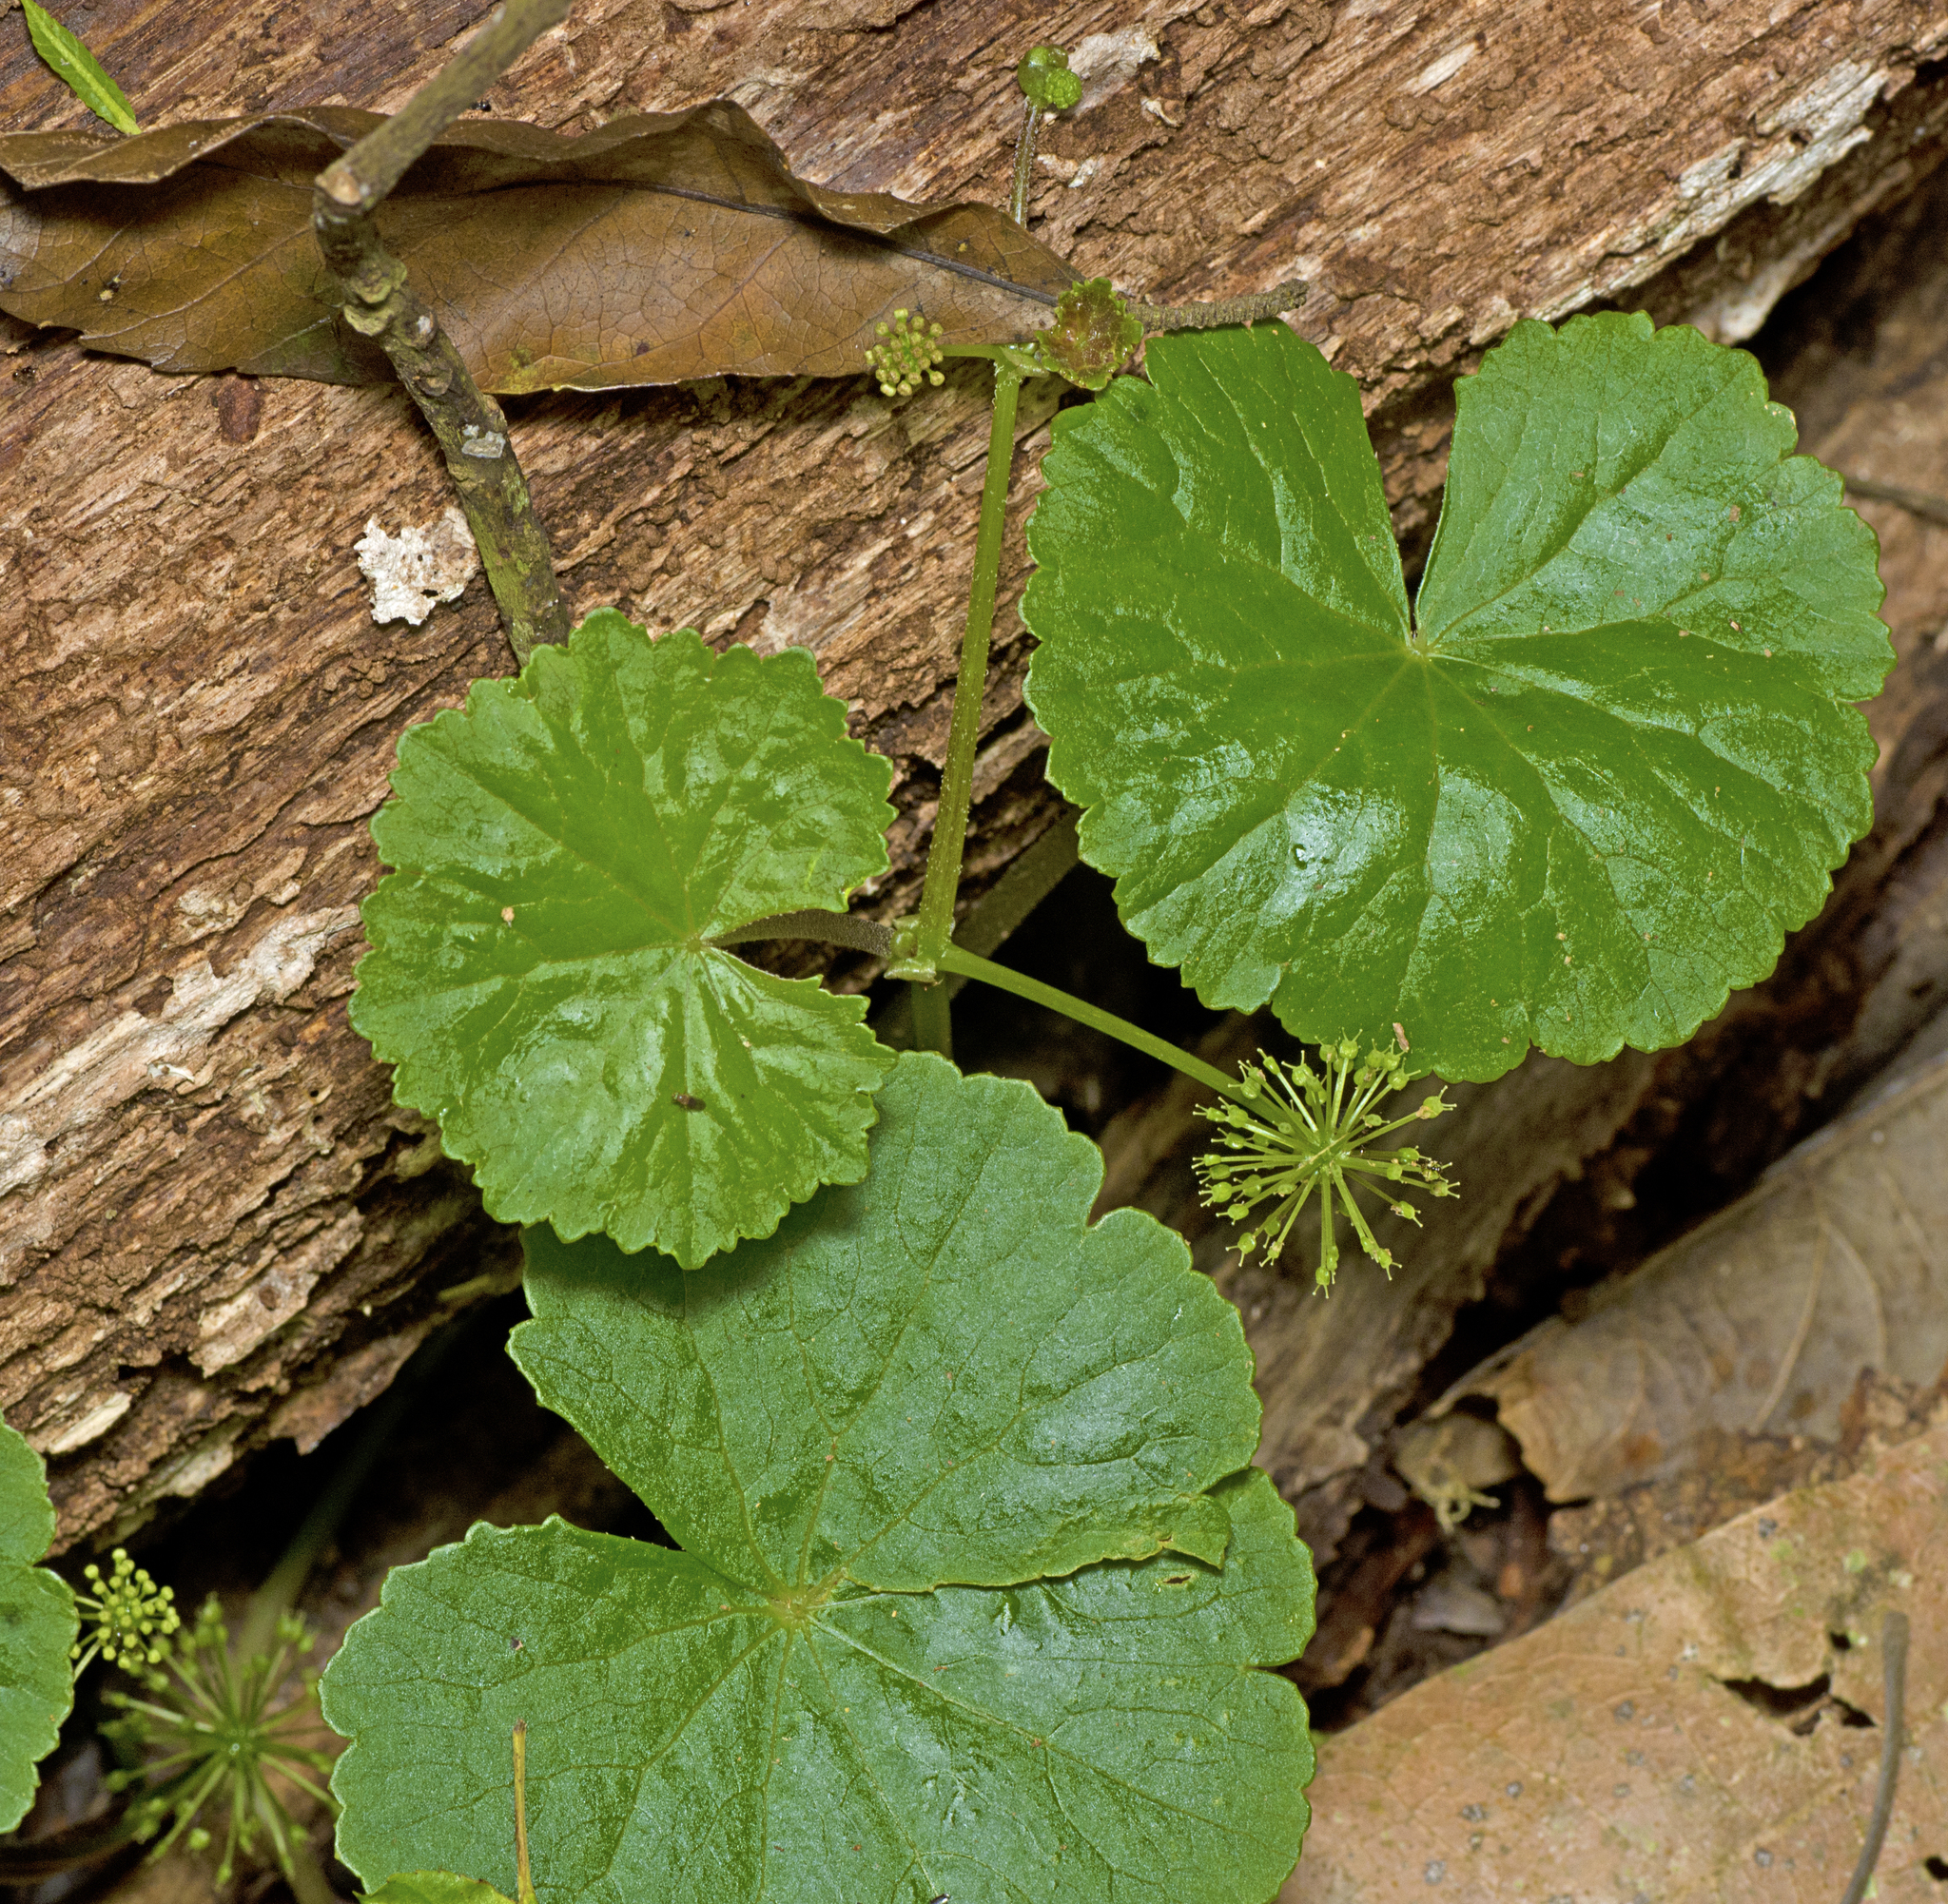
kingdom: Plantae
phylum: Tracheophyta
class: Magnoliopsida
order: Apiales
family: Araliaceae
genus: Hydrocotyle
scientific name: Hydrocotyle pedicellosa
